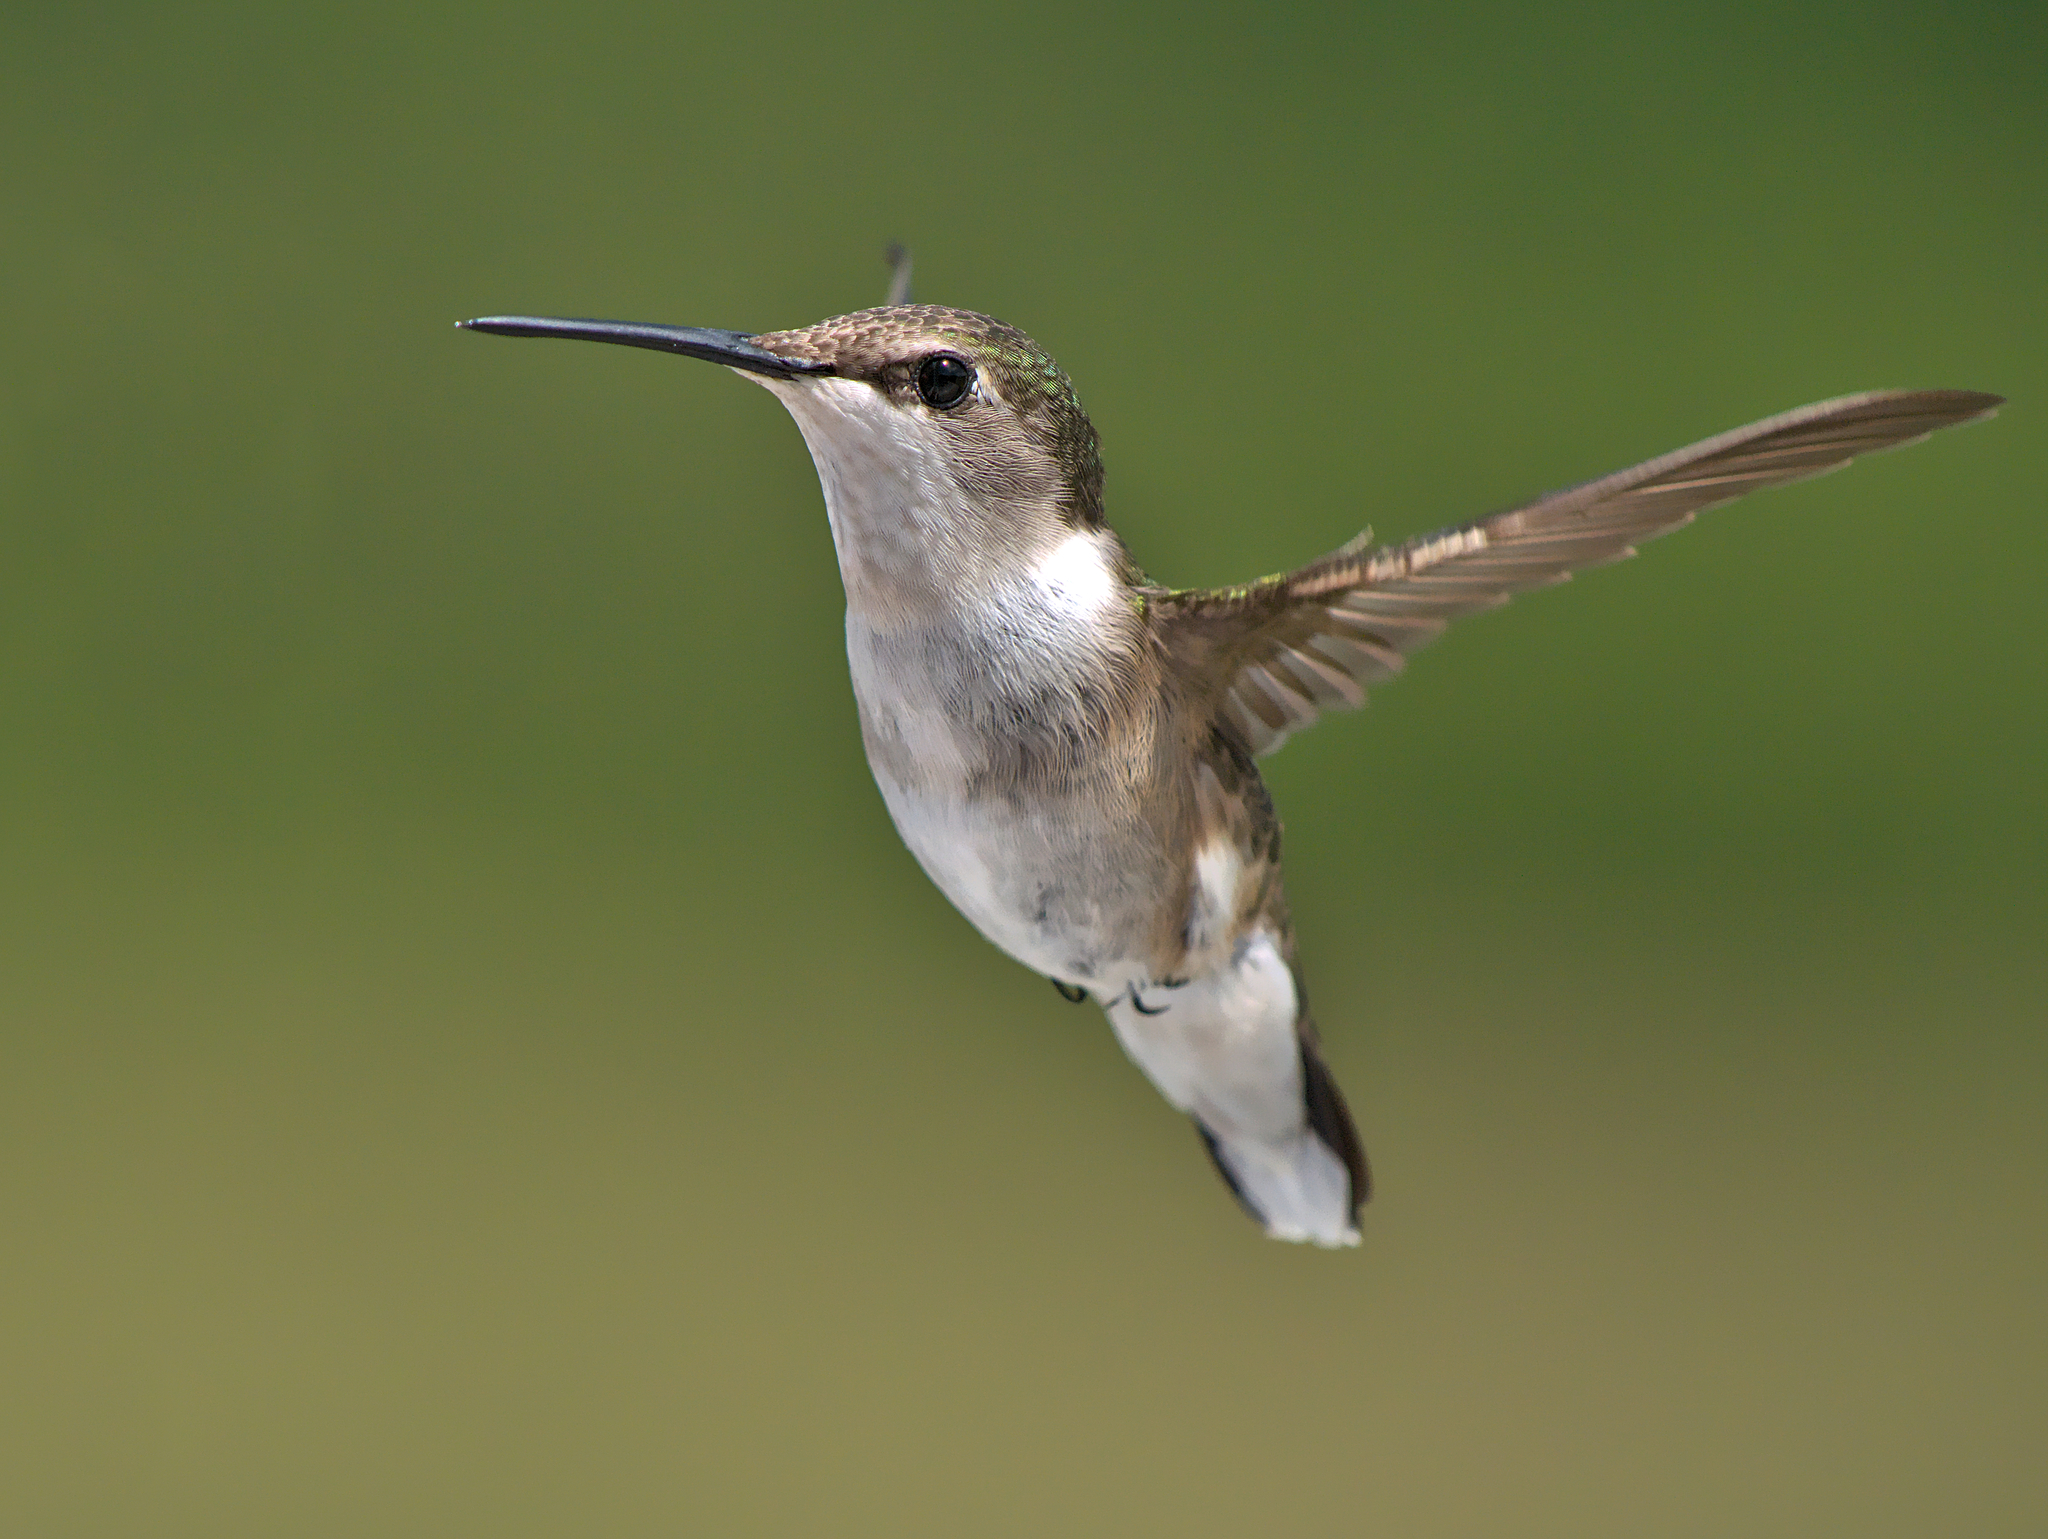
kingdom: Animalia
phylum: Chordata
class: Aves
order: Apodiformes
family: Trochilidae
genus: Archilochus
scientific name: Archilochus colubris
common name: Ruby-throated hummingbird
